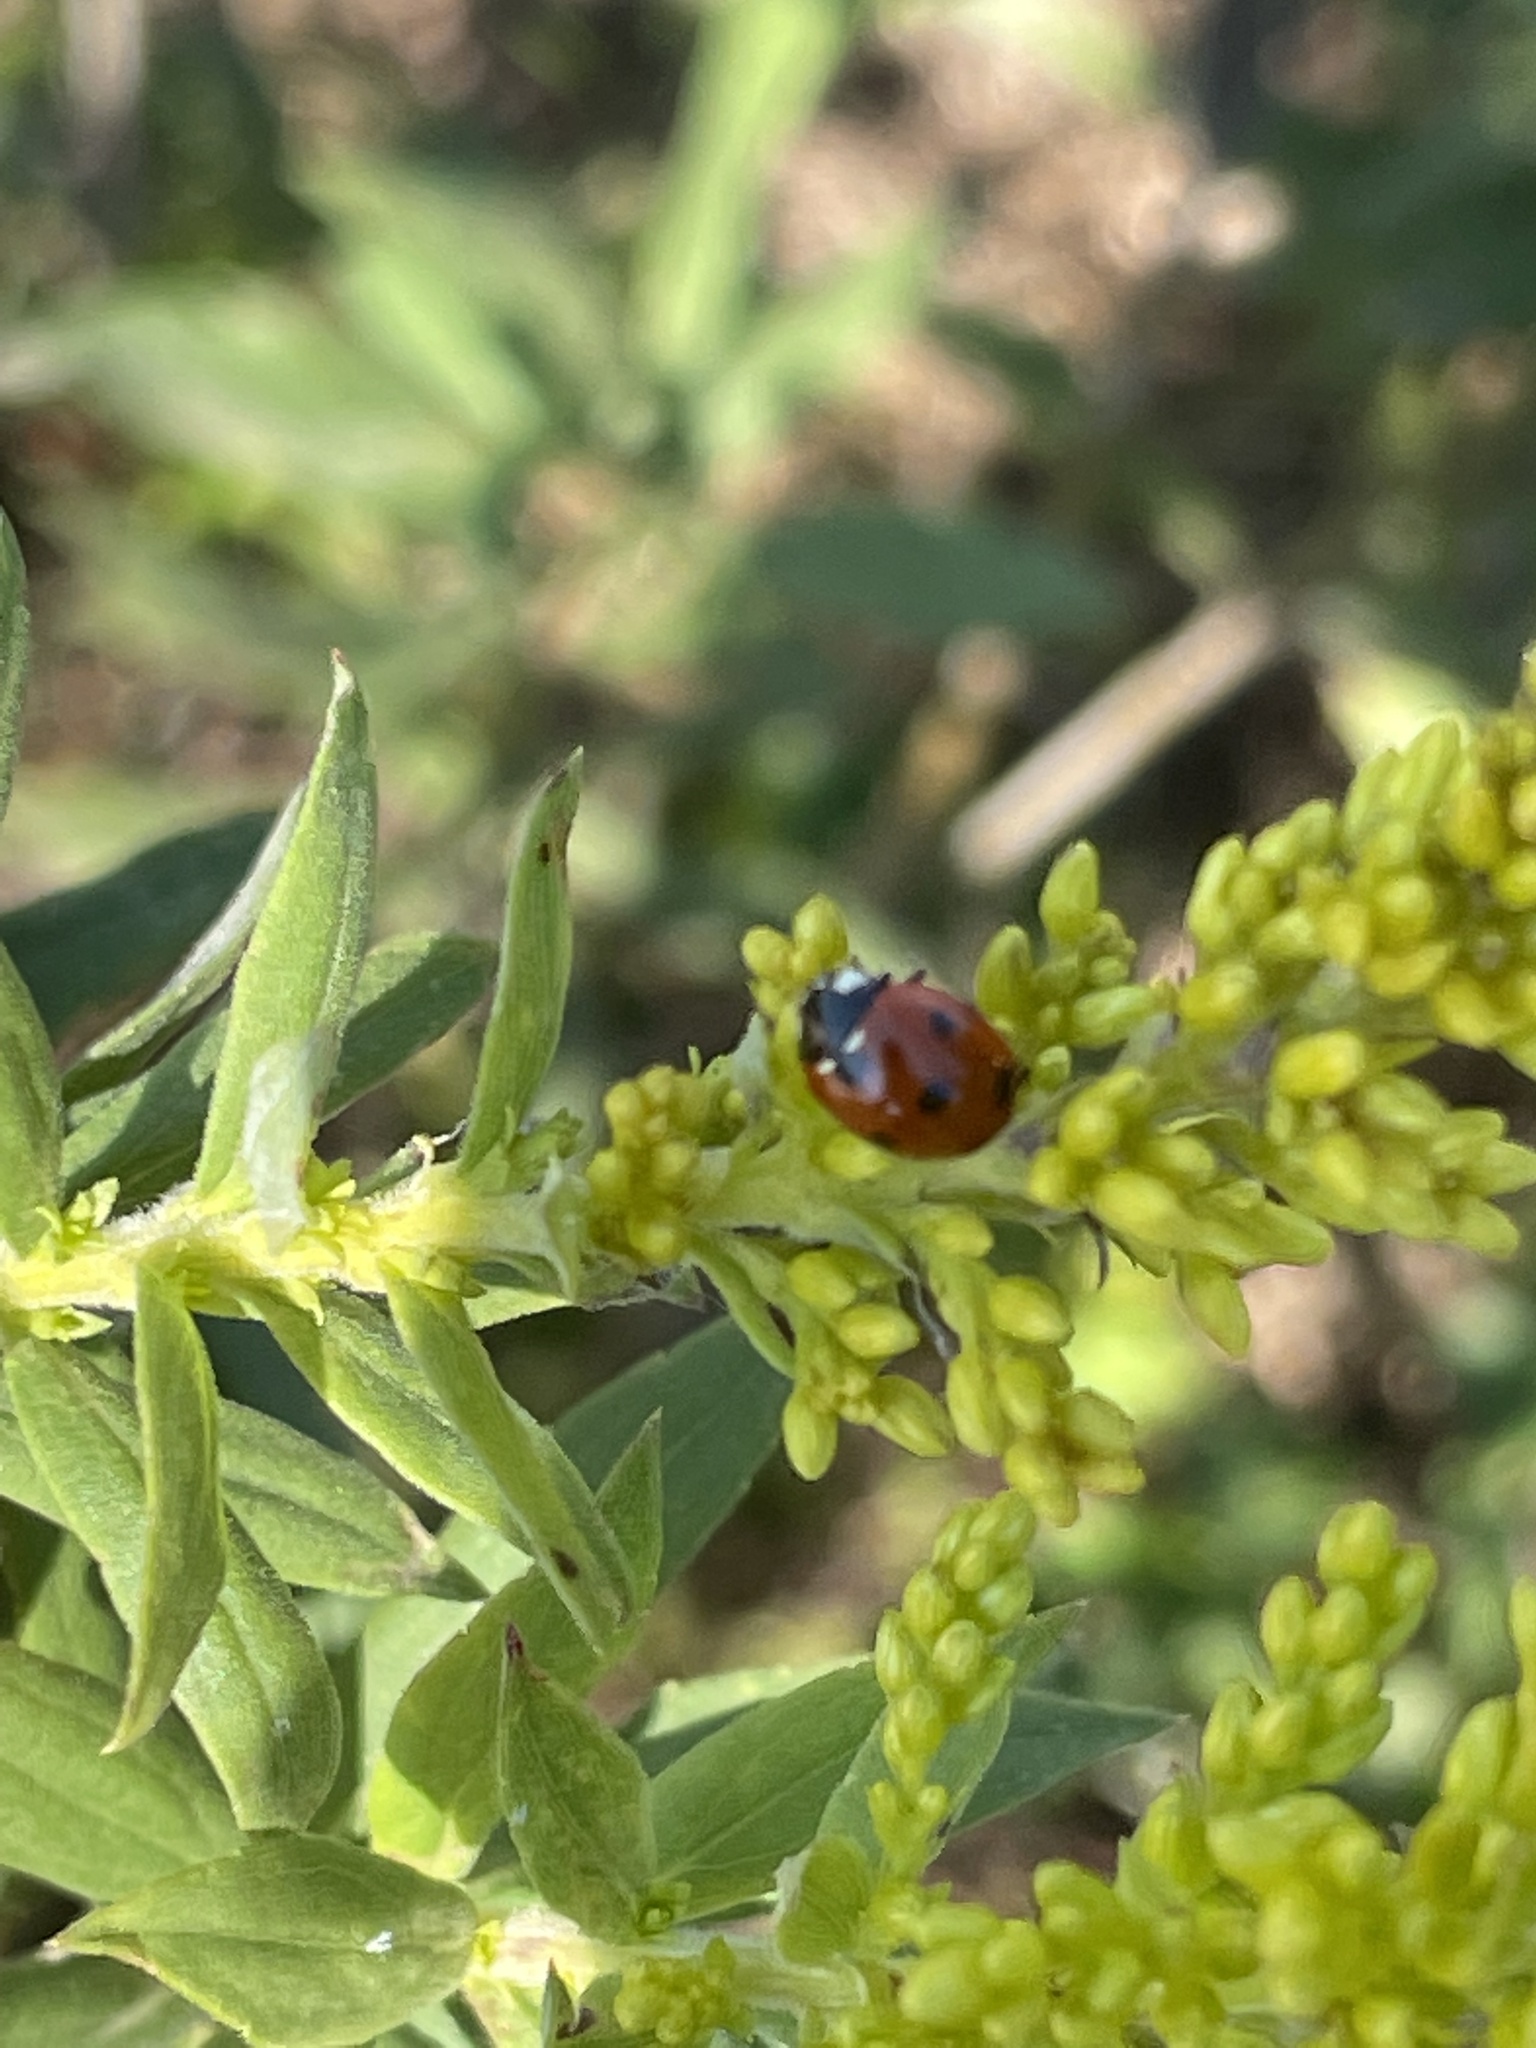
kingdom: Animalia
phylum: Arthropoda
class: Insecta
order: Coleoptera
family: Coccinellidae
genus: Coccinella
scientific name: Coccinella septempunctata
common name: Sevenspotted lady beetle
